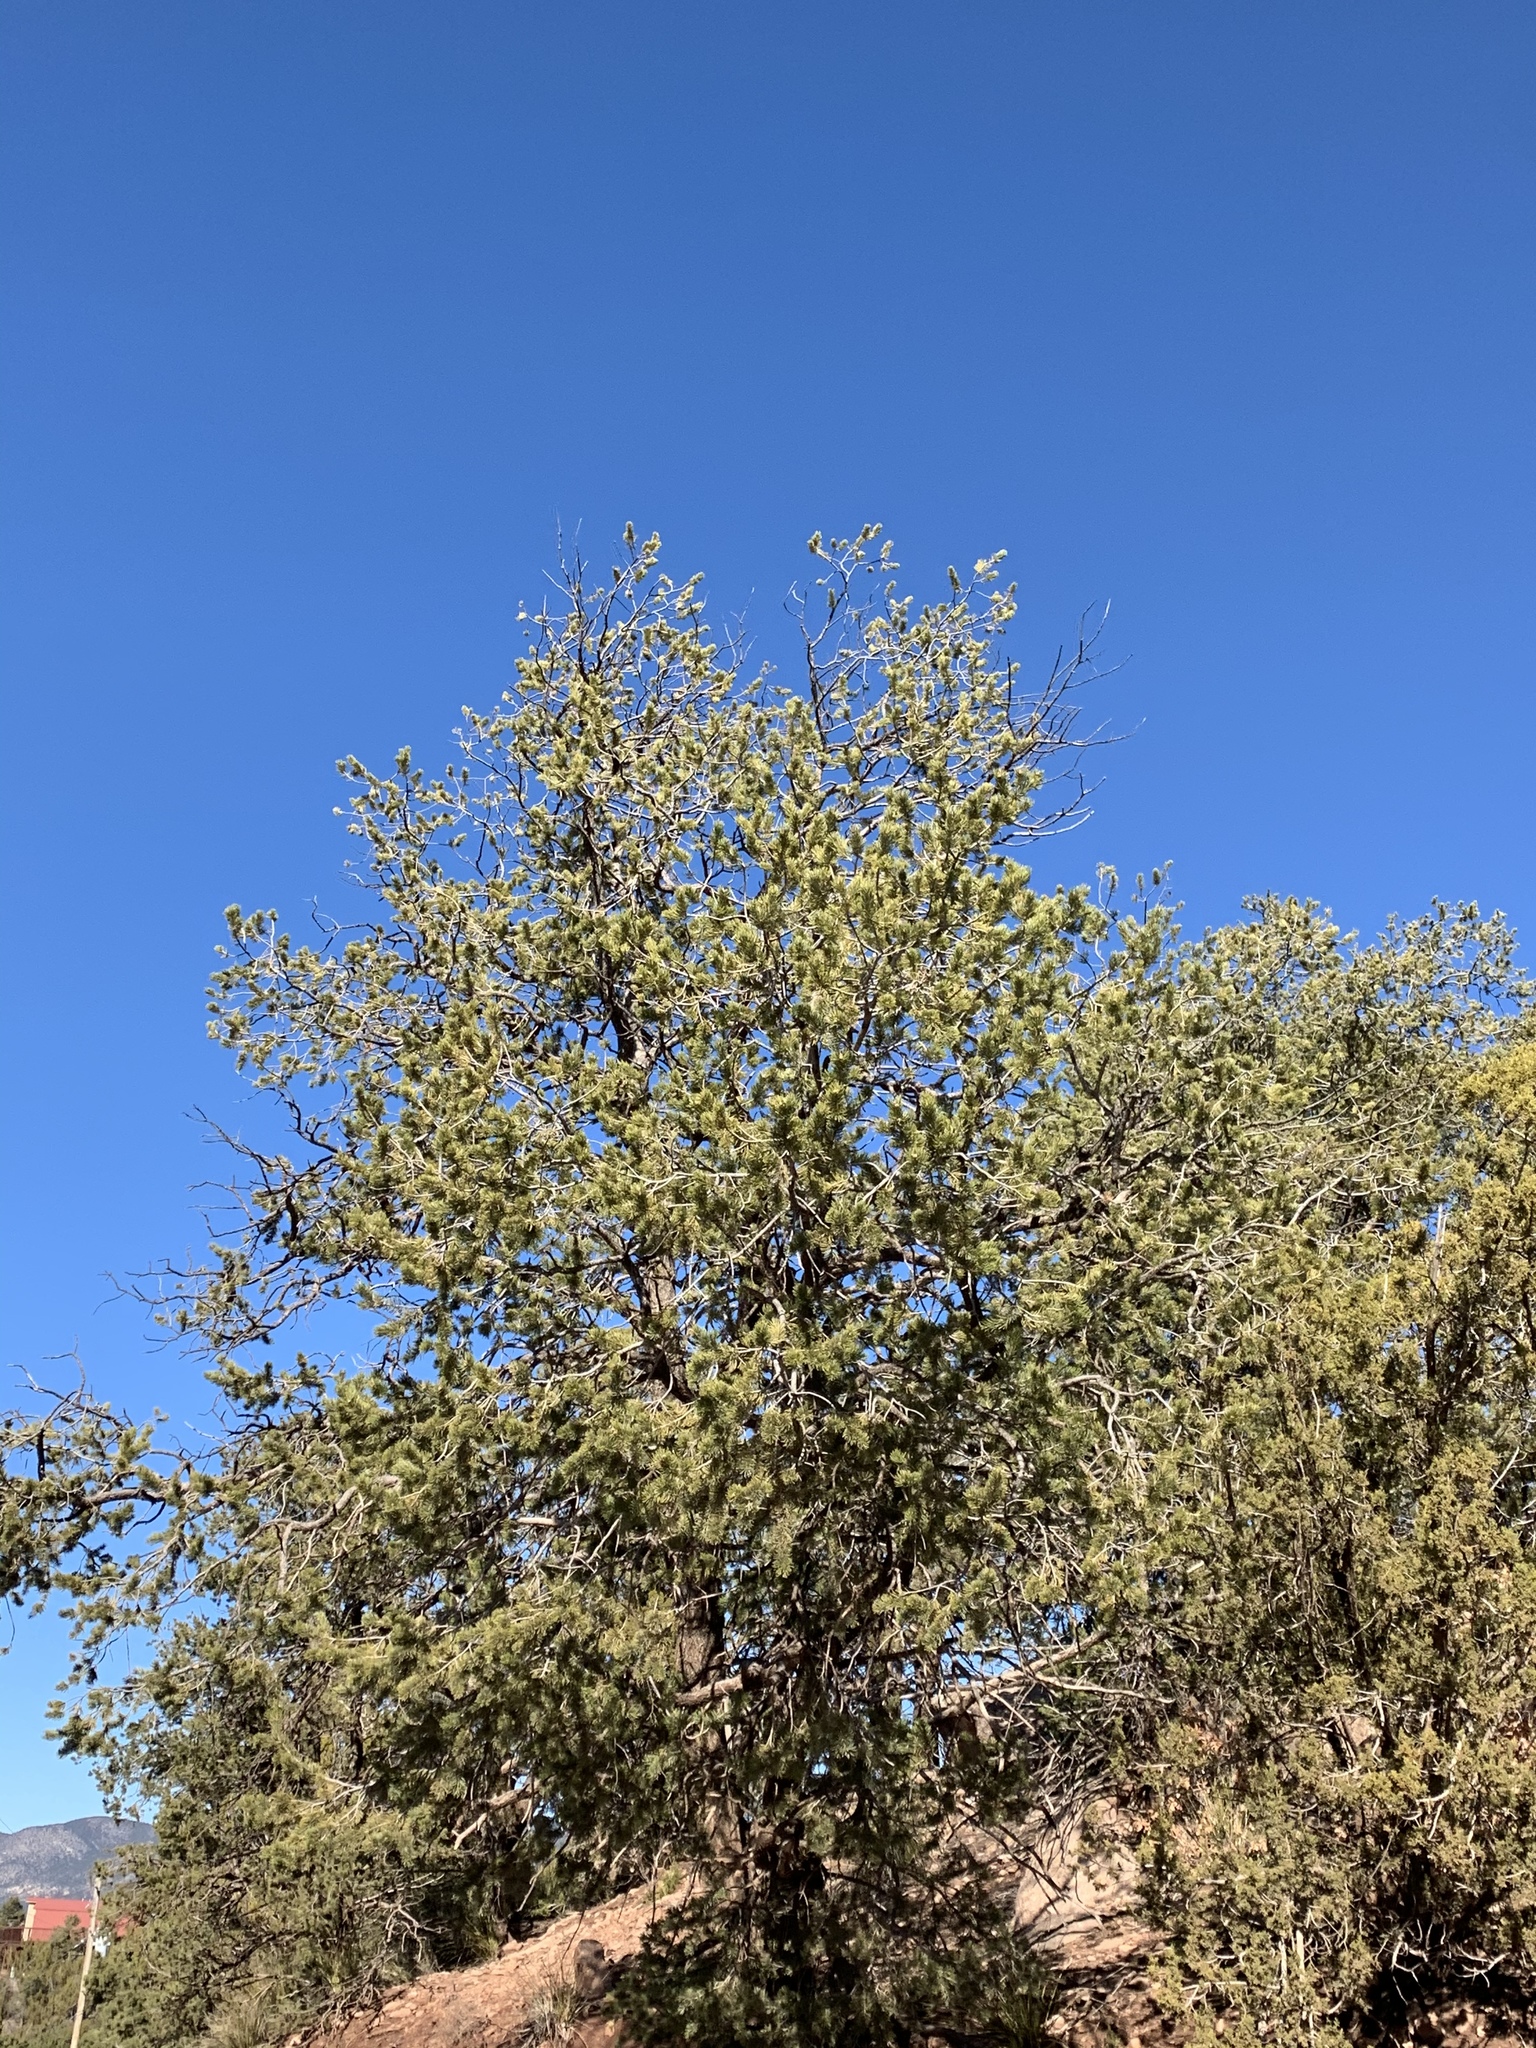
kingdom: Plantae
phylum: Tracheophyta
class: Pinopsida
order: Pinales
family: Pinaceae
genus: Pinus
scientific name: Pinus edulis
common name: Colorado pinyon
